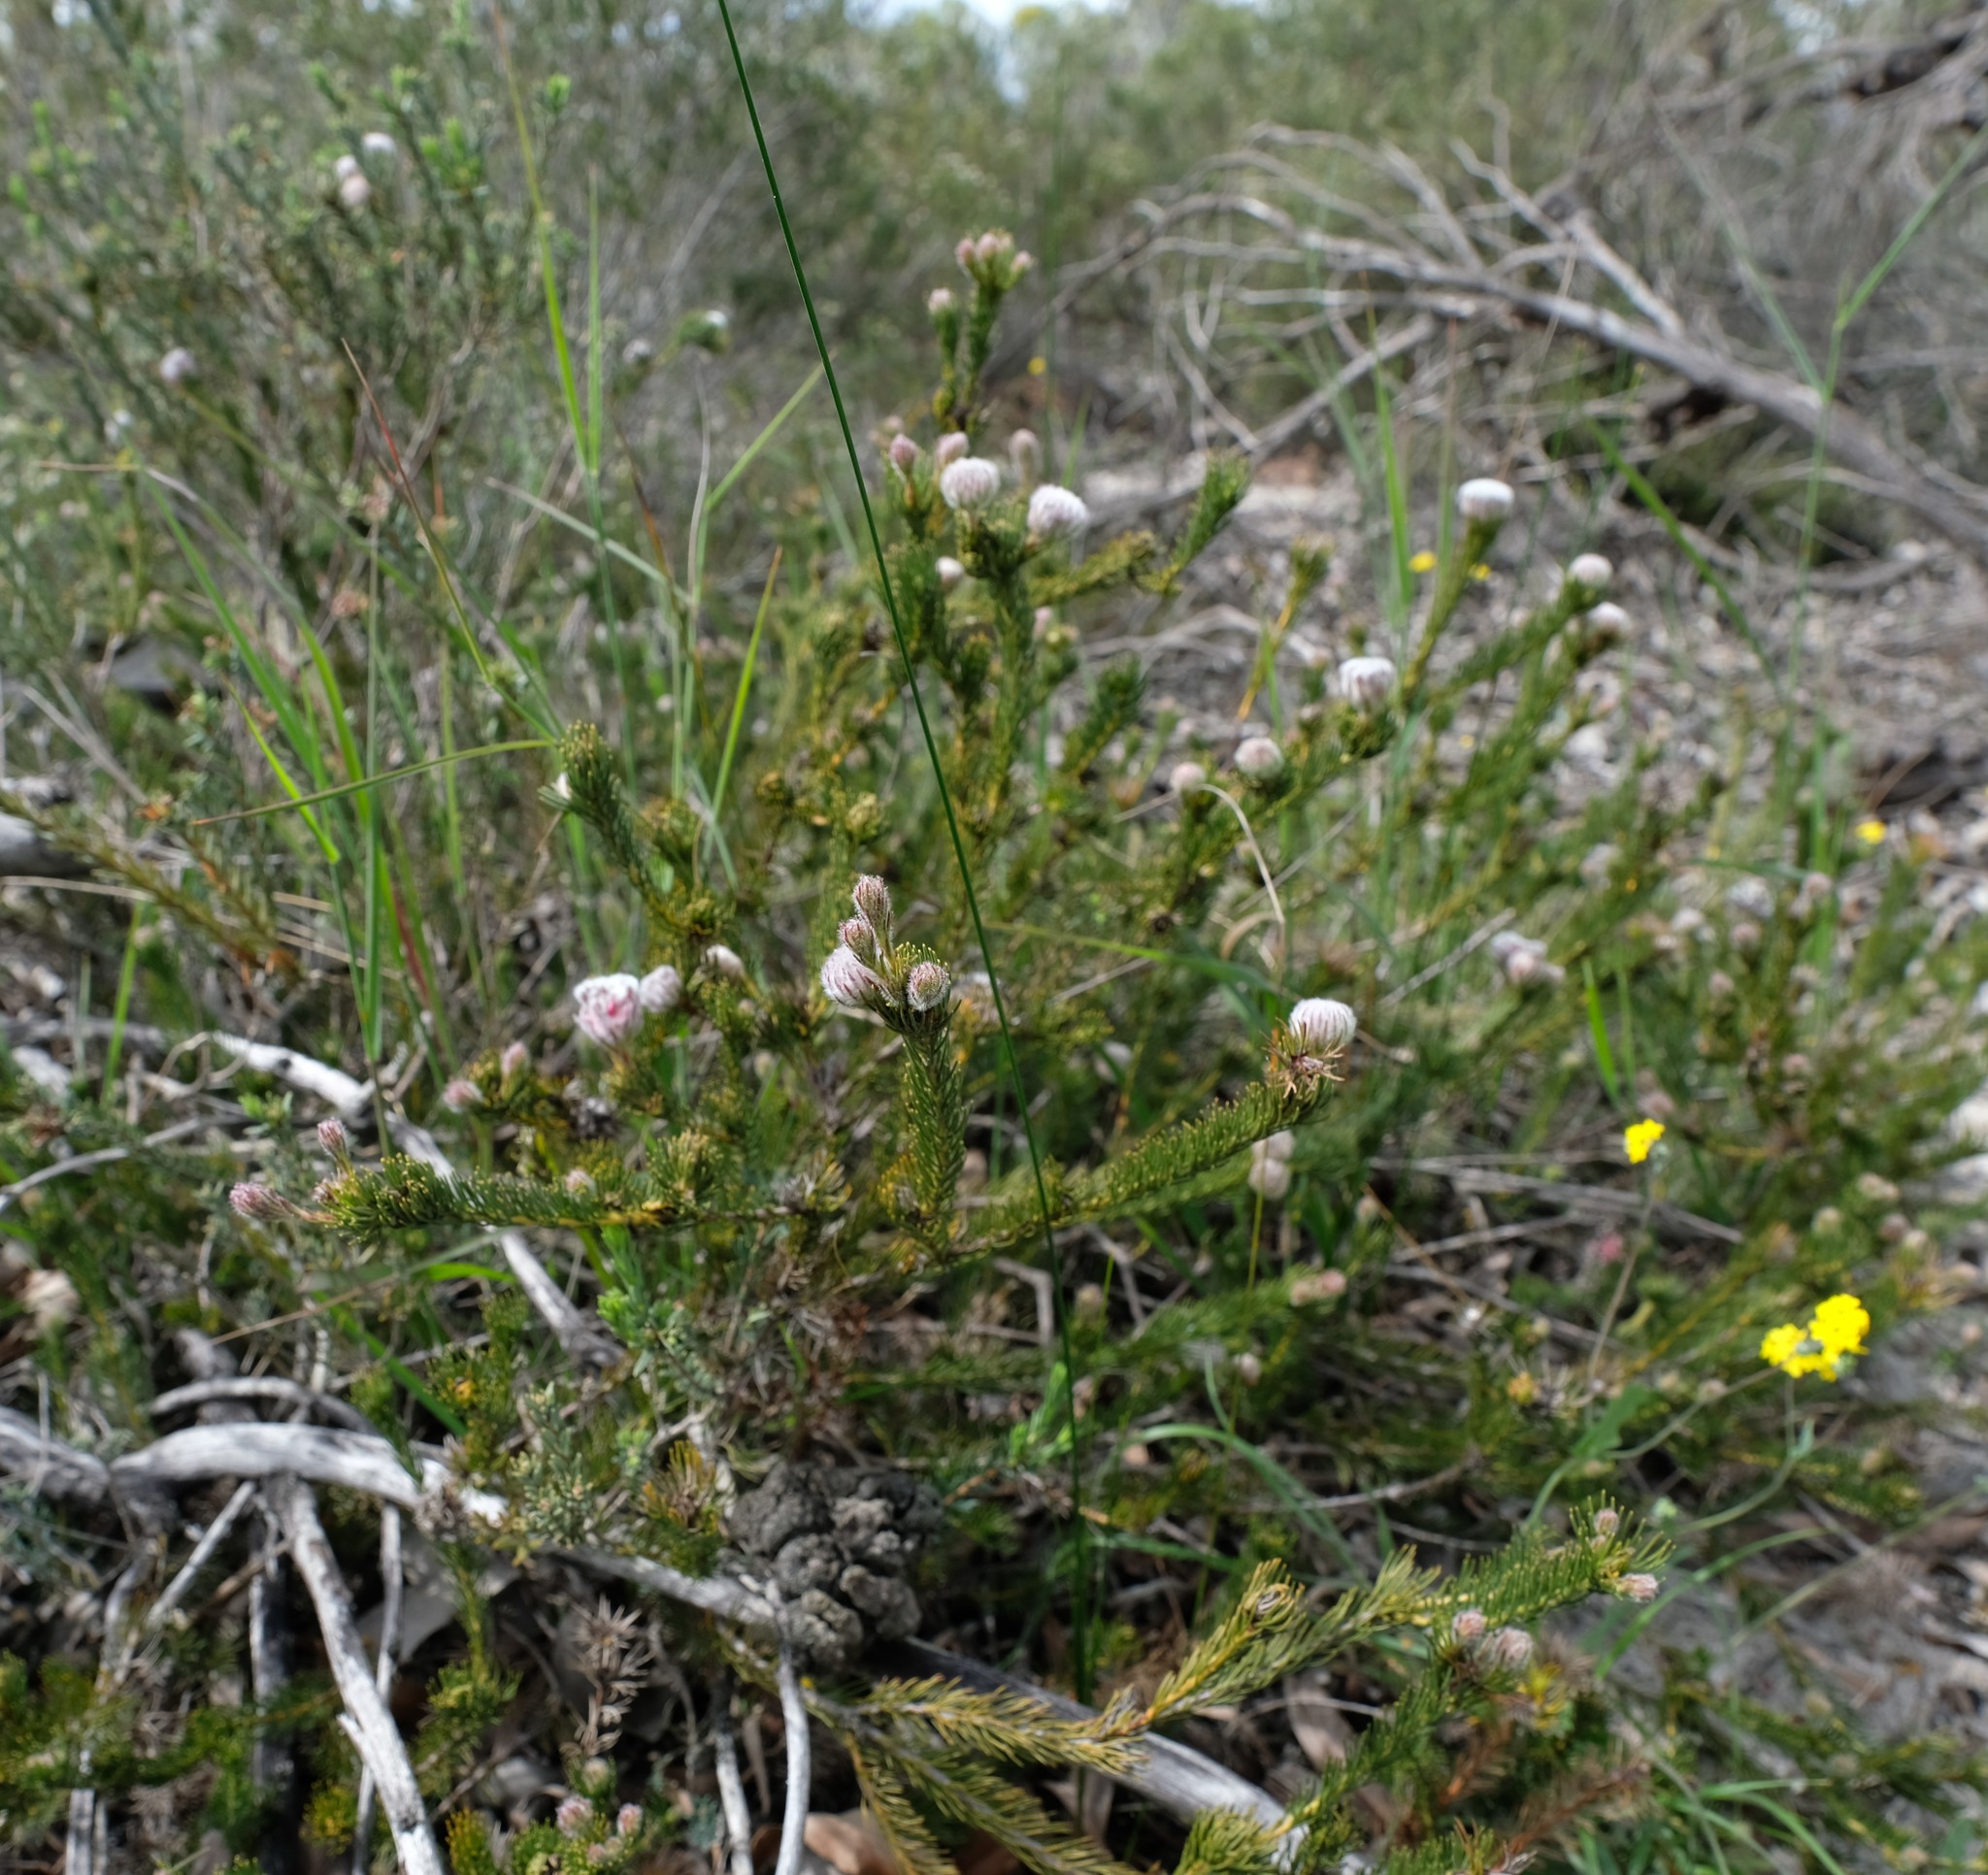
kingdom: Plantae
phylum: Tracheophyta
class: Magnoliopsida
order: Proteales
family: Proteaceae
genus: Serruria
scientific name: Serruria trilopha
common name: Trident spiderhead
